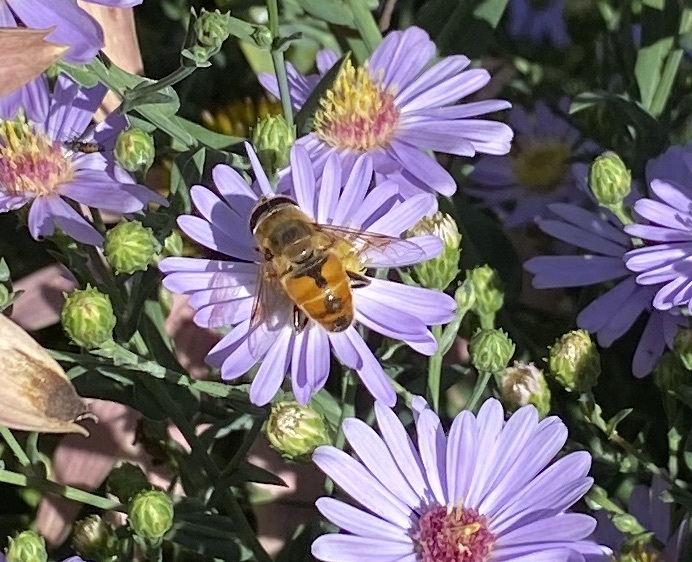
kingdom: Animalia
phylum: Arthropoda
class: Insecta
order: Diptera
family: Syrphidae
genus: Eristalis
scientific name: Eristalis tenax
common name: Drone fly
